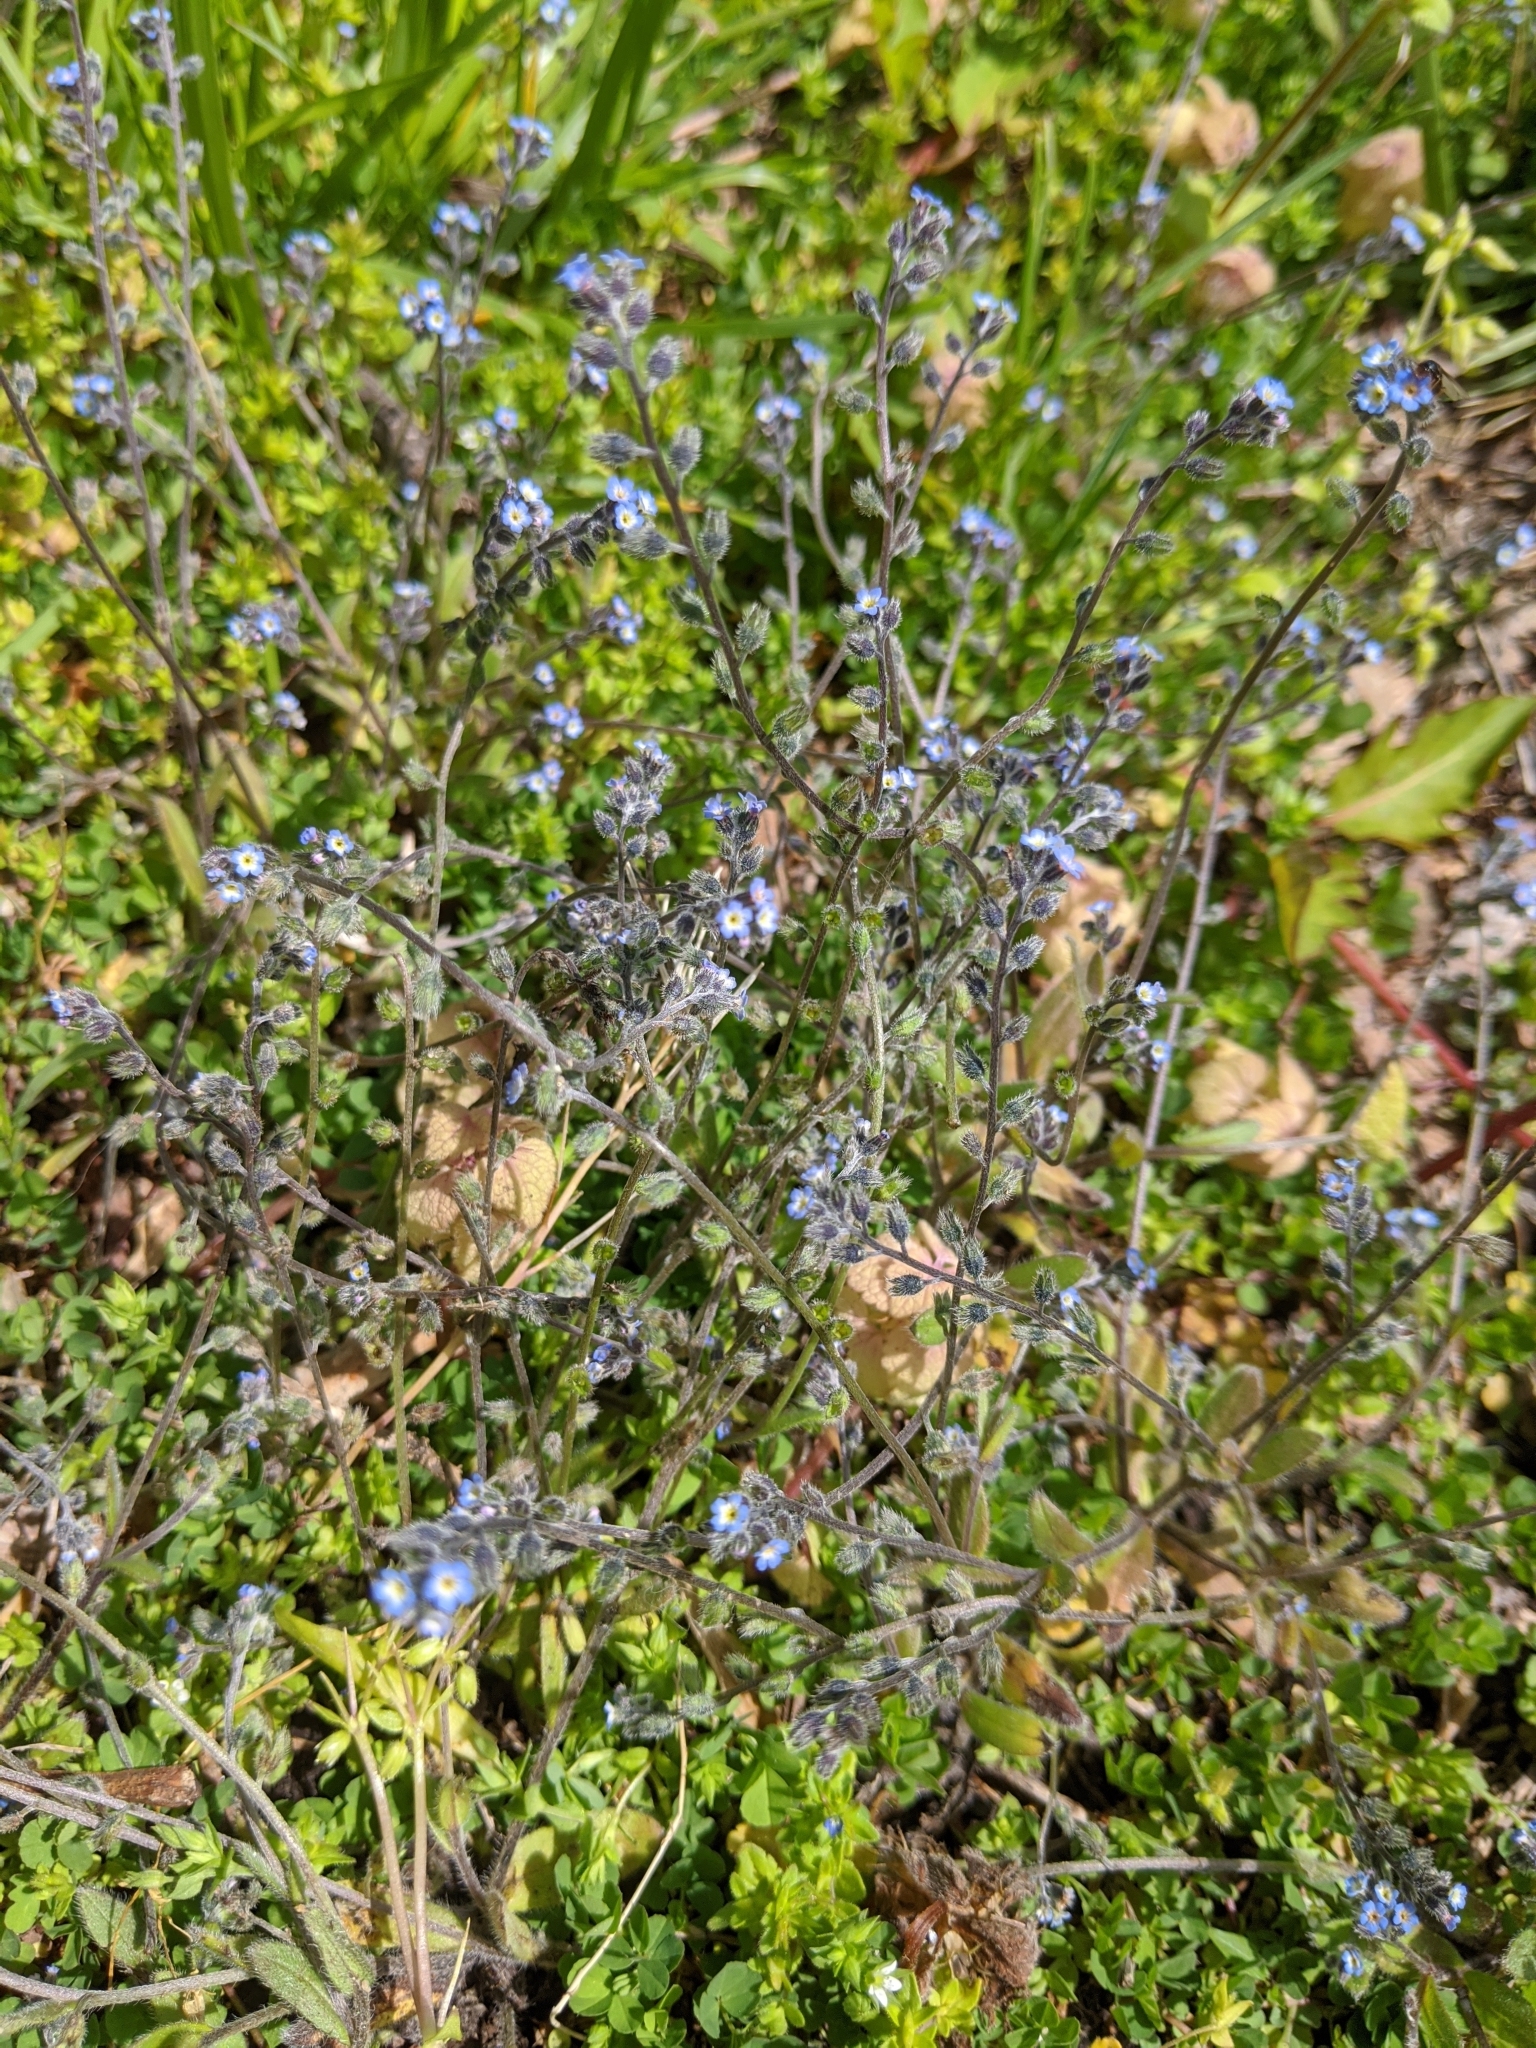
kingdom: Plantae
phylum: Tracheophyta
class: Magnoliopsida
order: Boraginales
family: Boraginaceae
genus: Myosotis
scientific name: Myosotis arvensis
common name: Field forget-me-not
